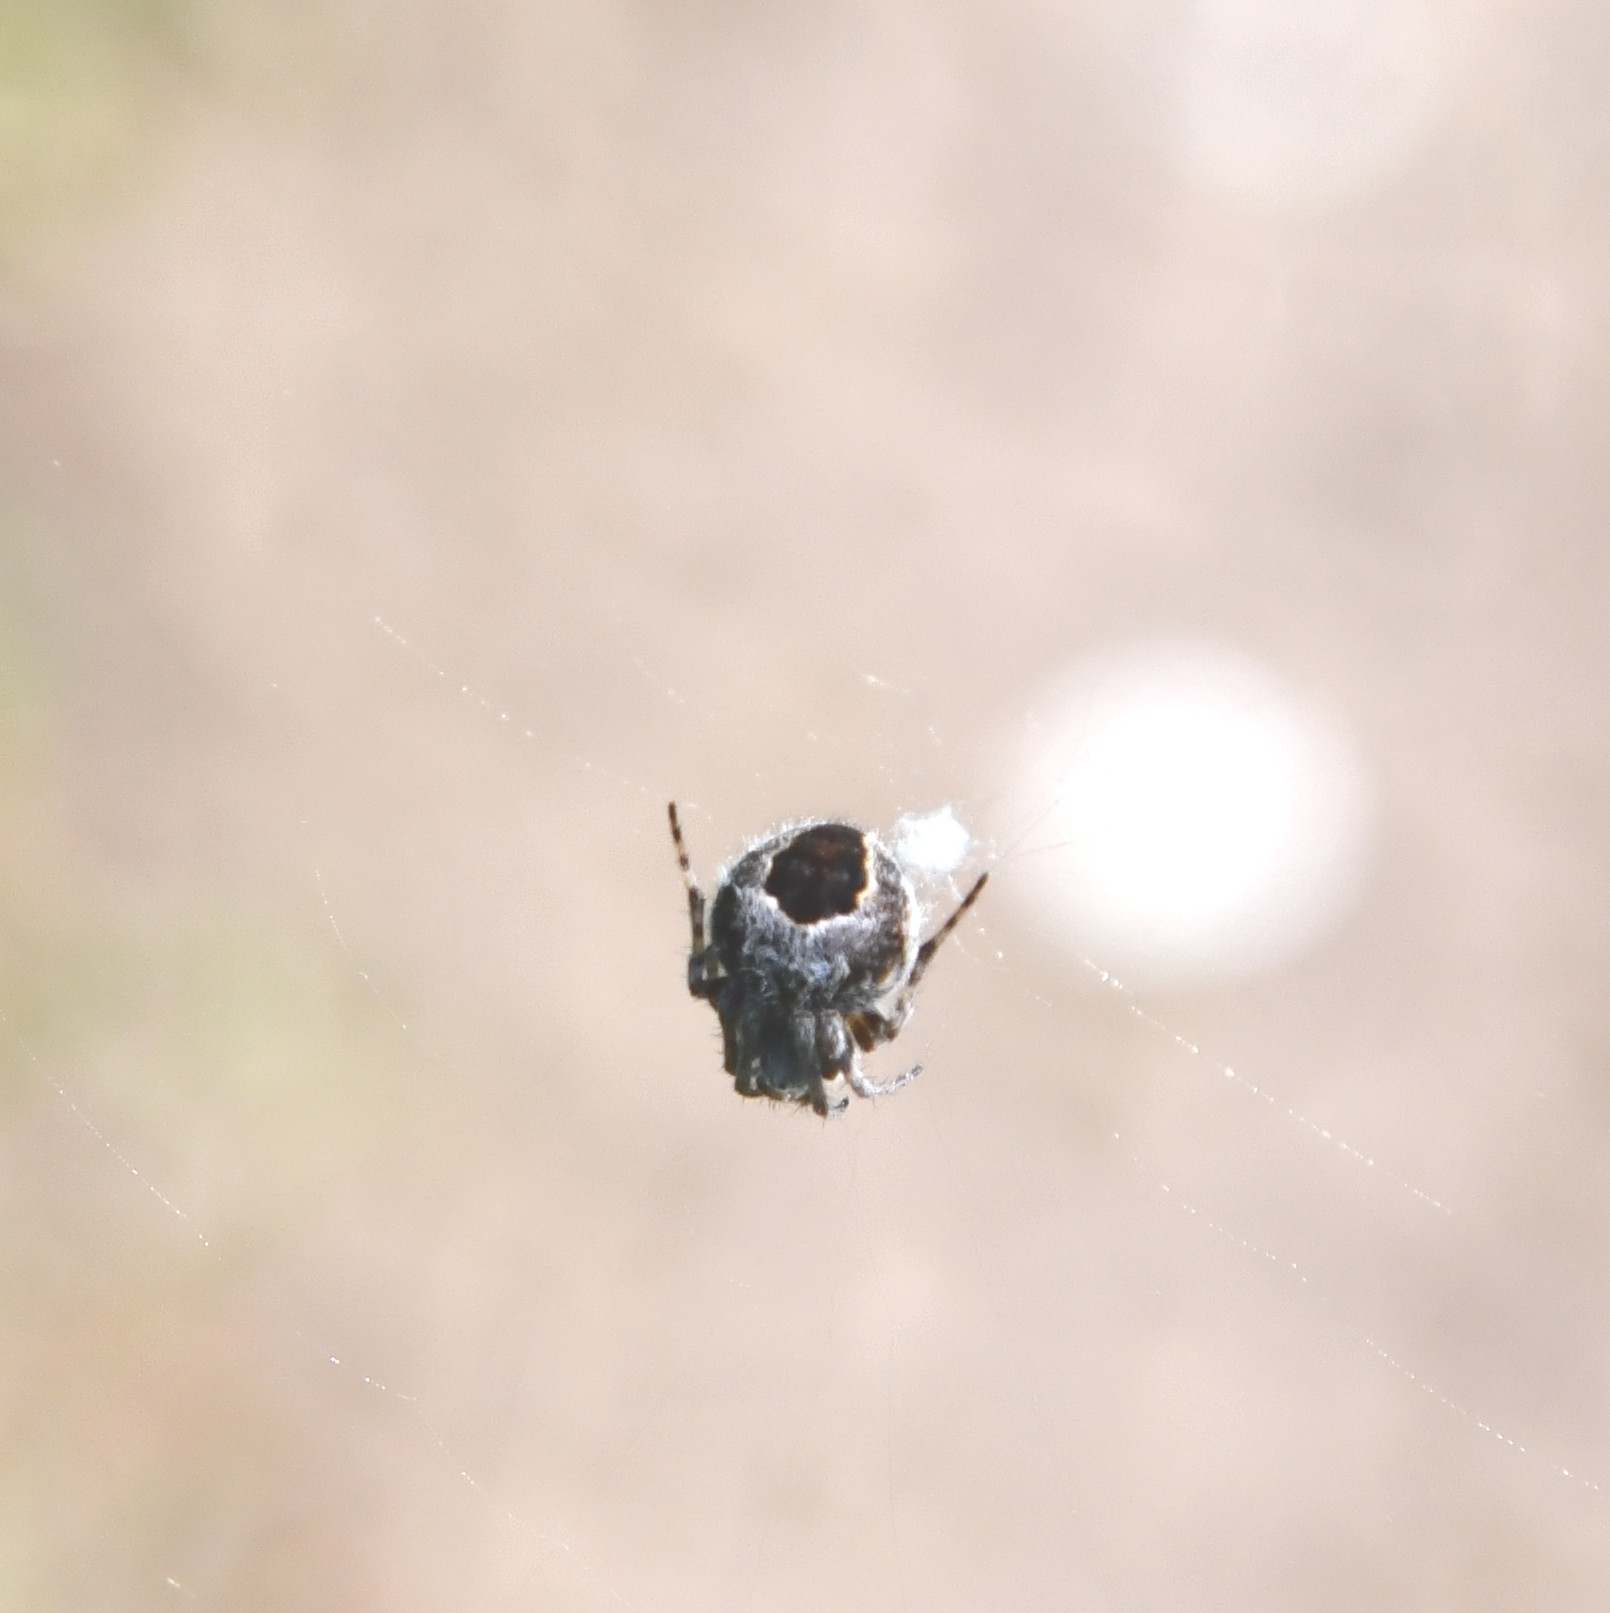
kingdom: Animalia
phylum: Arthropoda
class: Arachnida
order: Araneae
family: Araneidae
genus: Agalenatea
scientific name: Agalenatea redii
